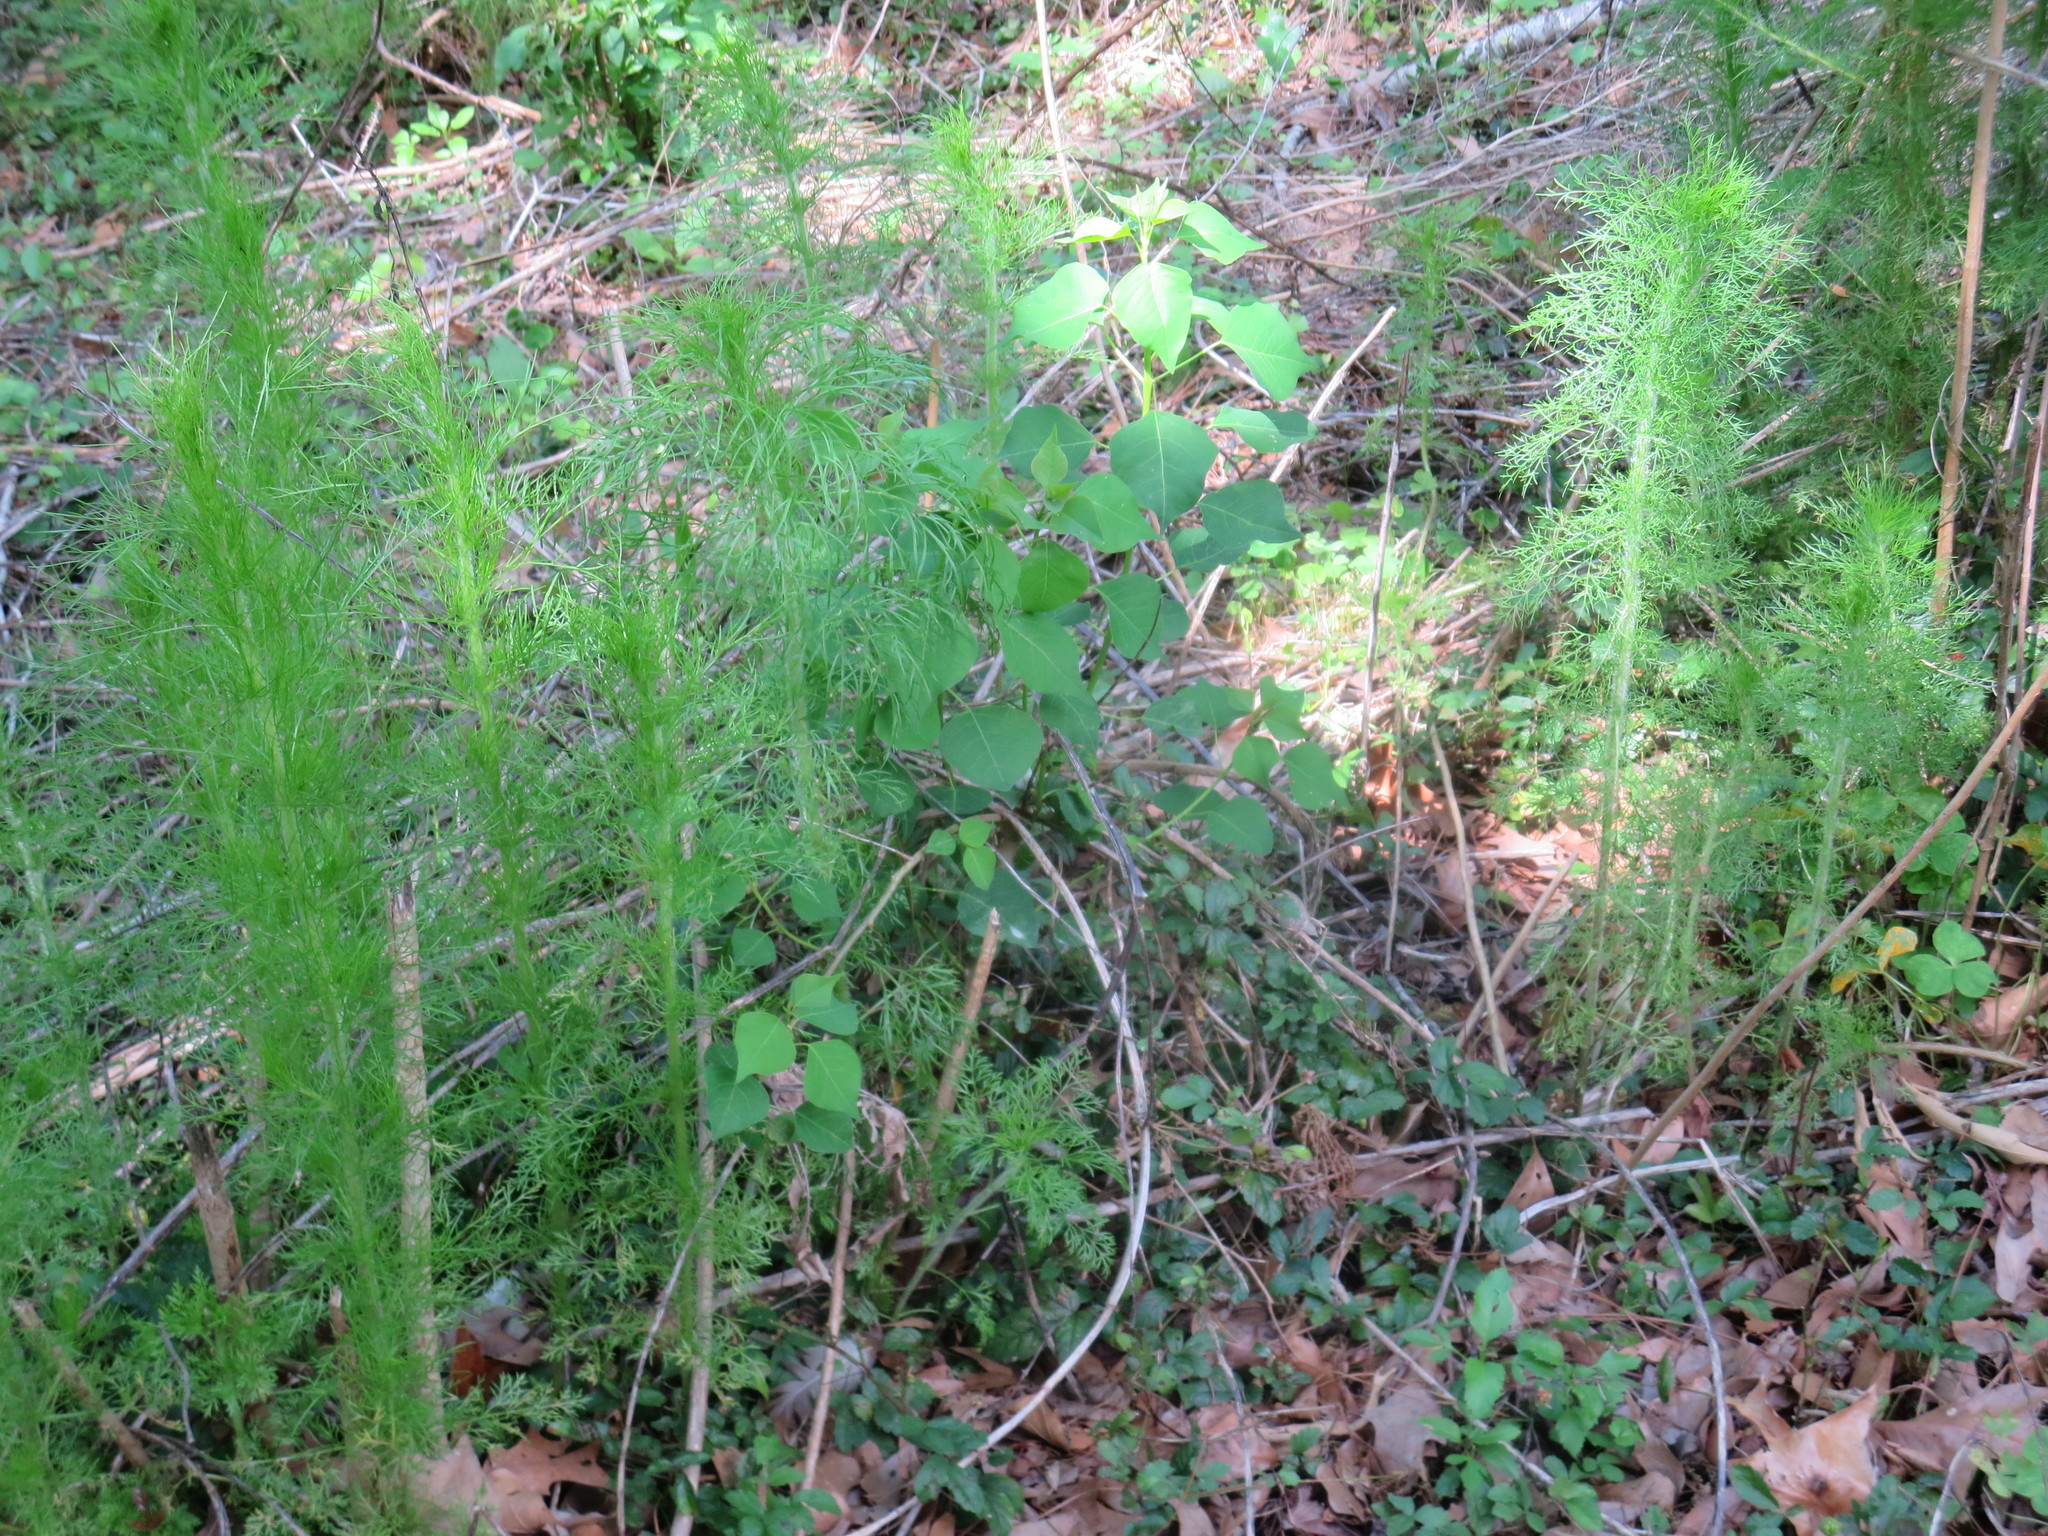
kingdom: Plantae
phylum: Tracheophyta
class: Magnoliopsida
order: Asterales
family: Asteraceae
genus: Eupatorium
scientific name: Eupatorium capillifolium
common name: Dog-fennel
